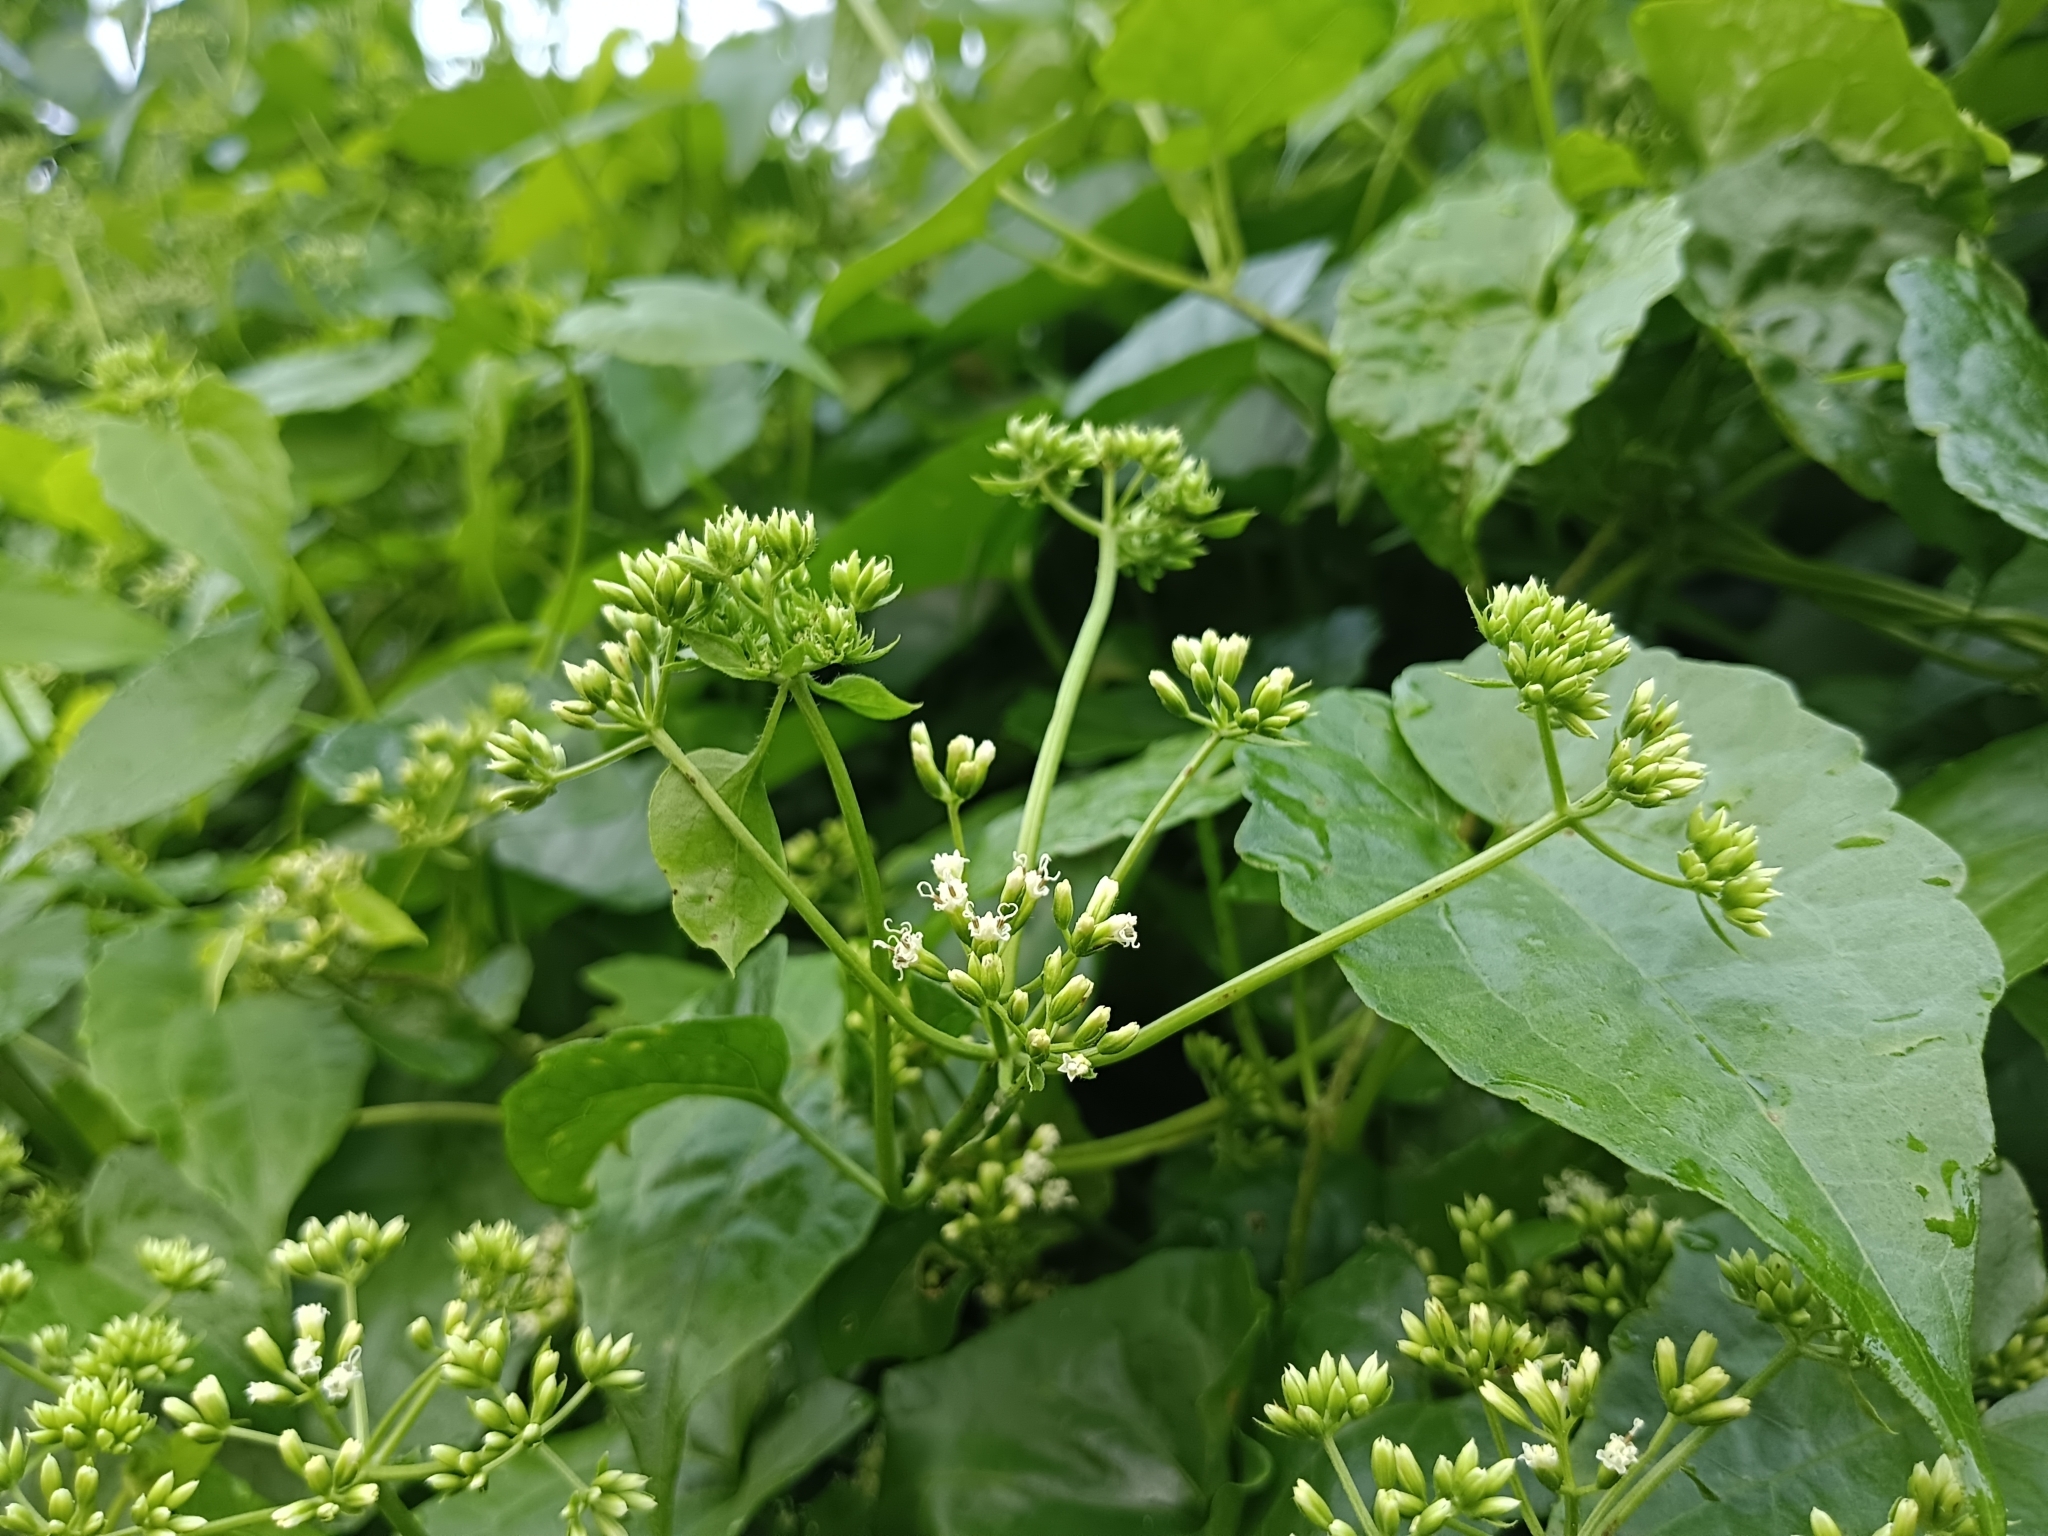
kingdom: Plantae
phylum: Tracheophyta
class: Magnoliopsida
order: Asterales
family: Asteraceae
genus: Mikania
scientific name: Mikania micrantha
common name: Mile-a-minute
